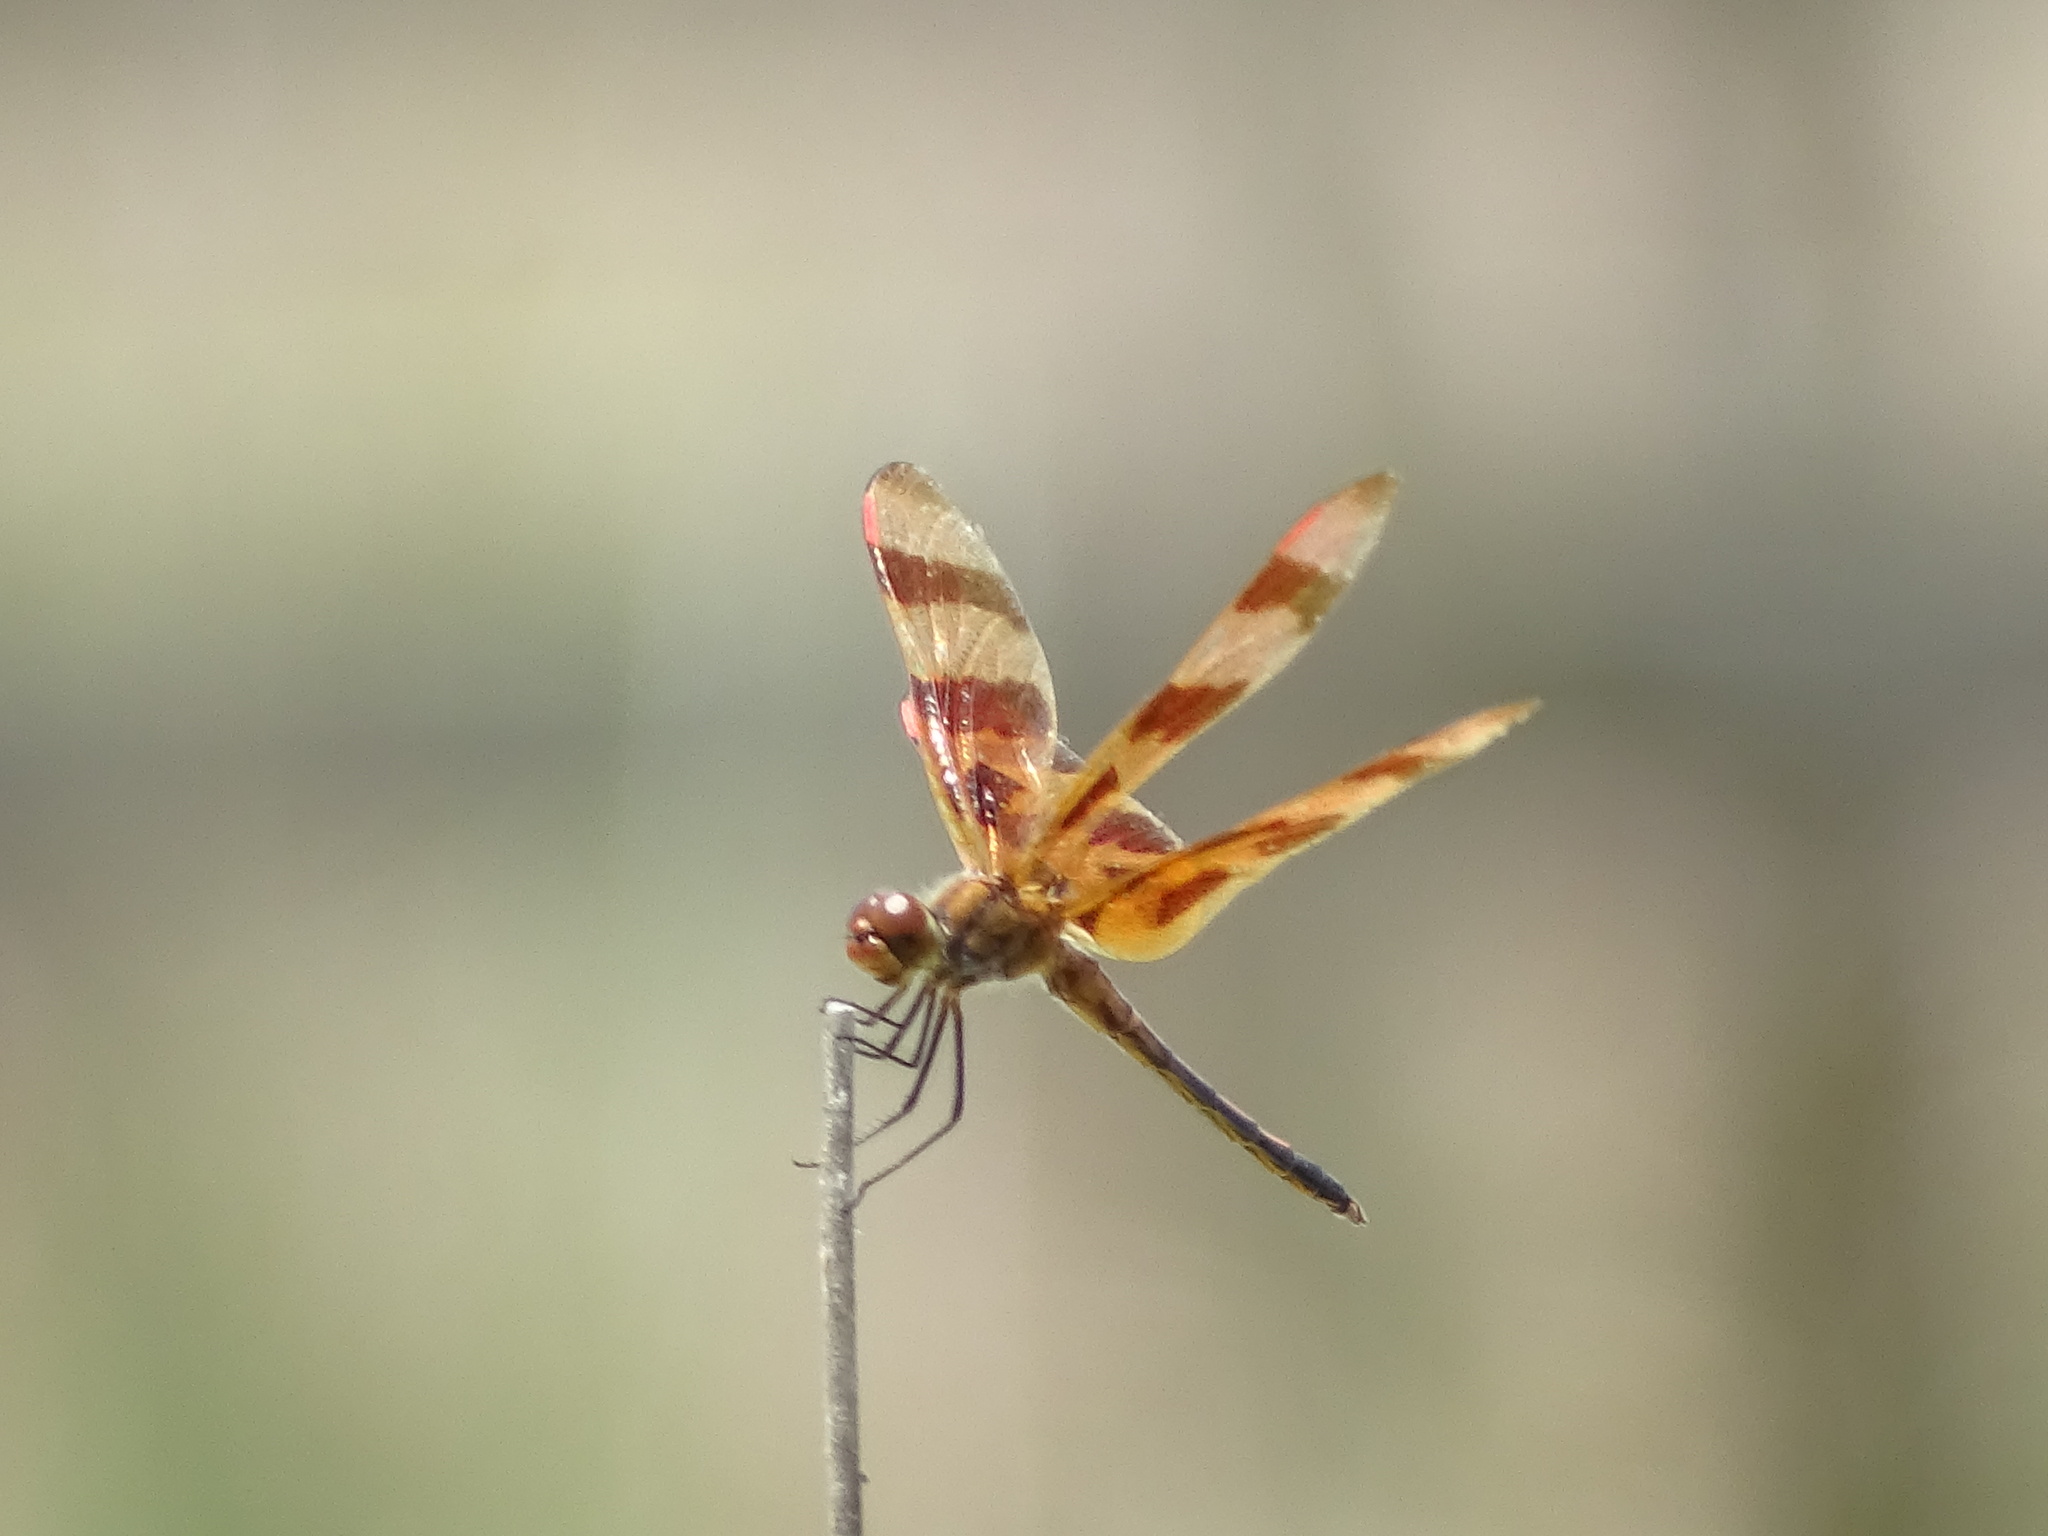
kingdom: Animalia
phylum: Arthropoda
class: Insecta
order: Odonata
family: Libellulidae
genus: Celithemis
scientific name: Celithemis eponina
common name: Halloween pennant
